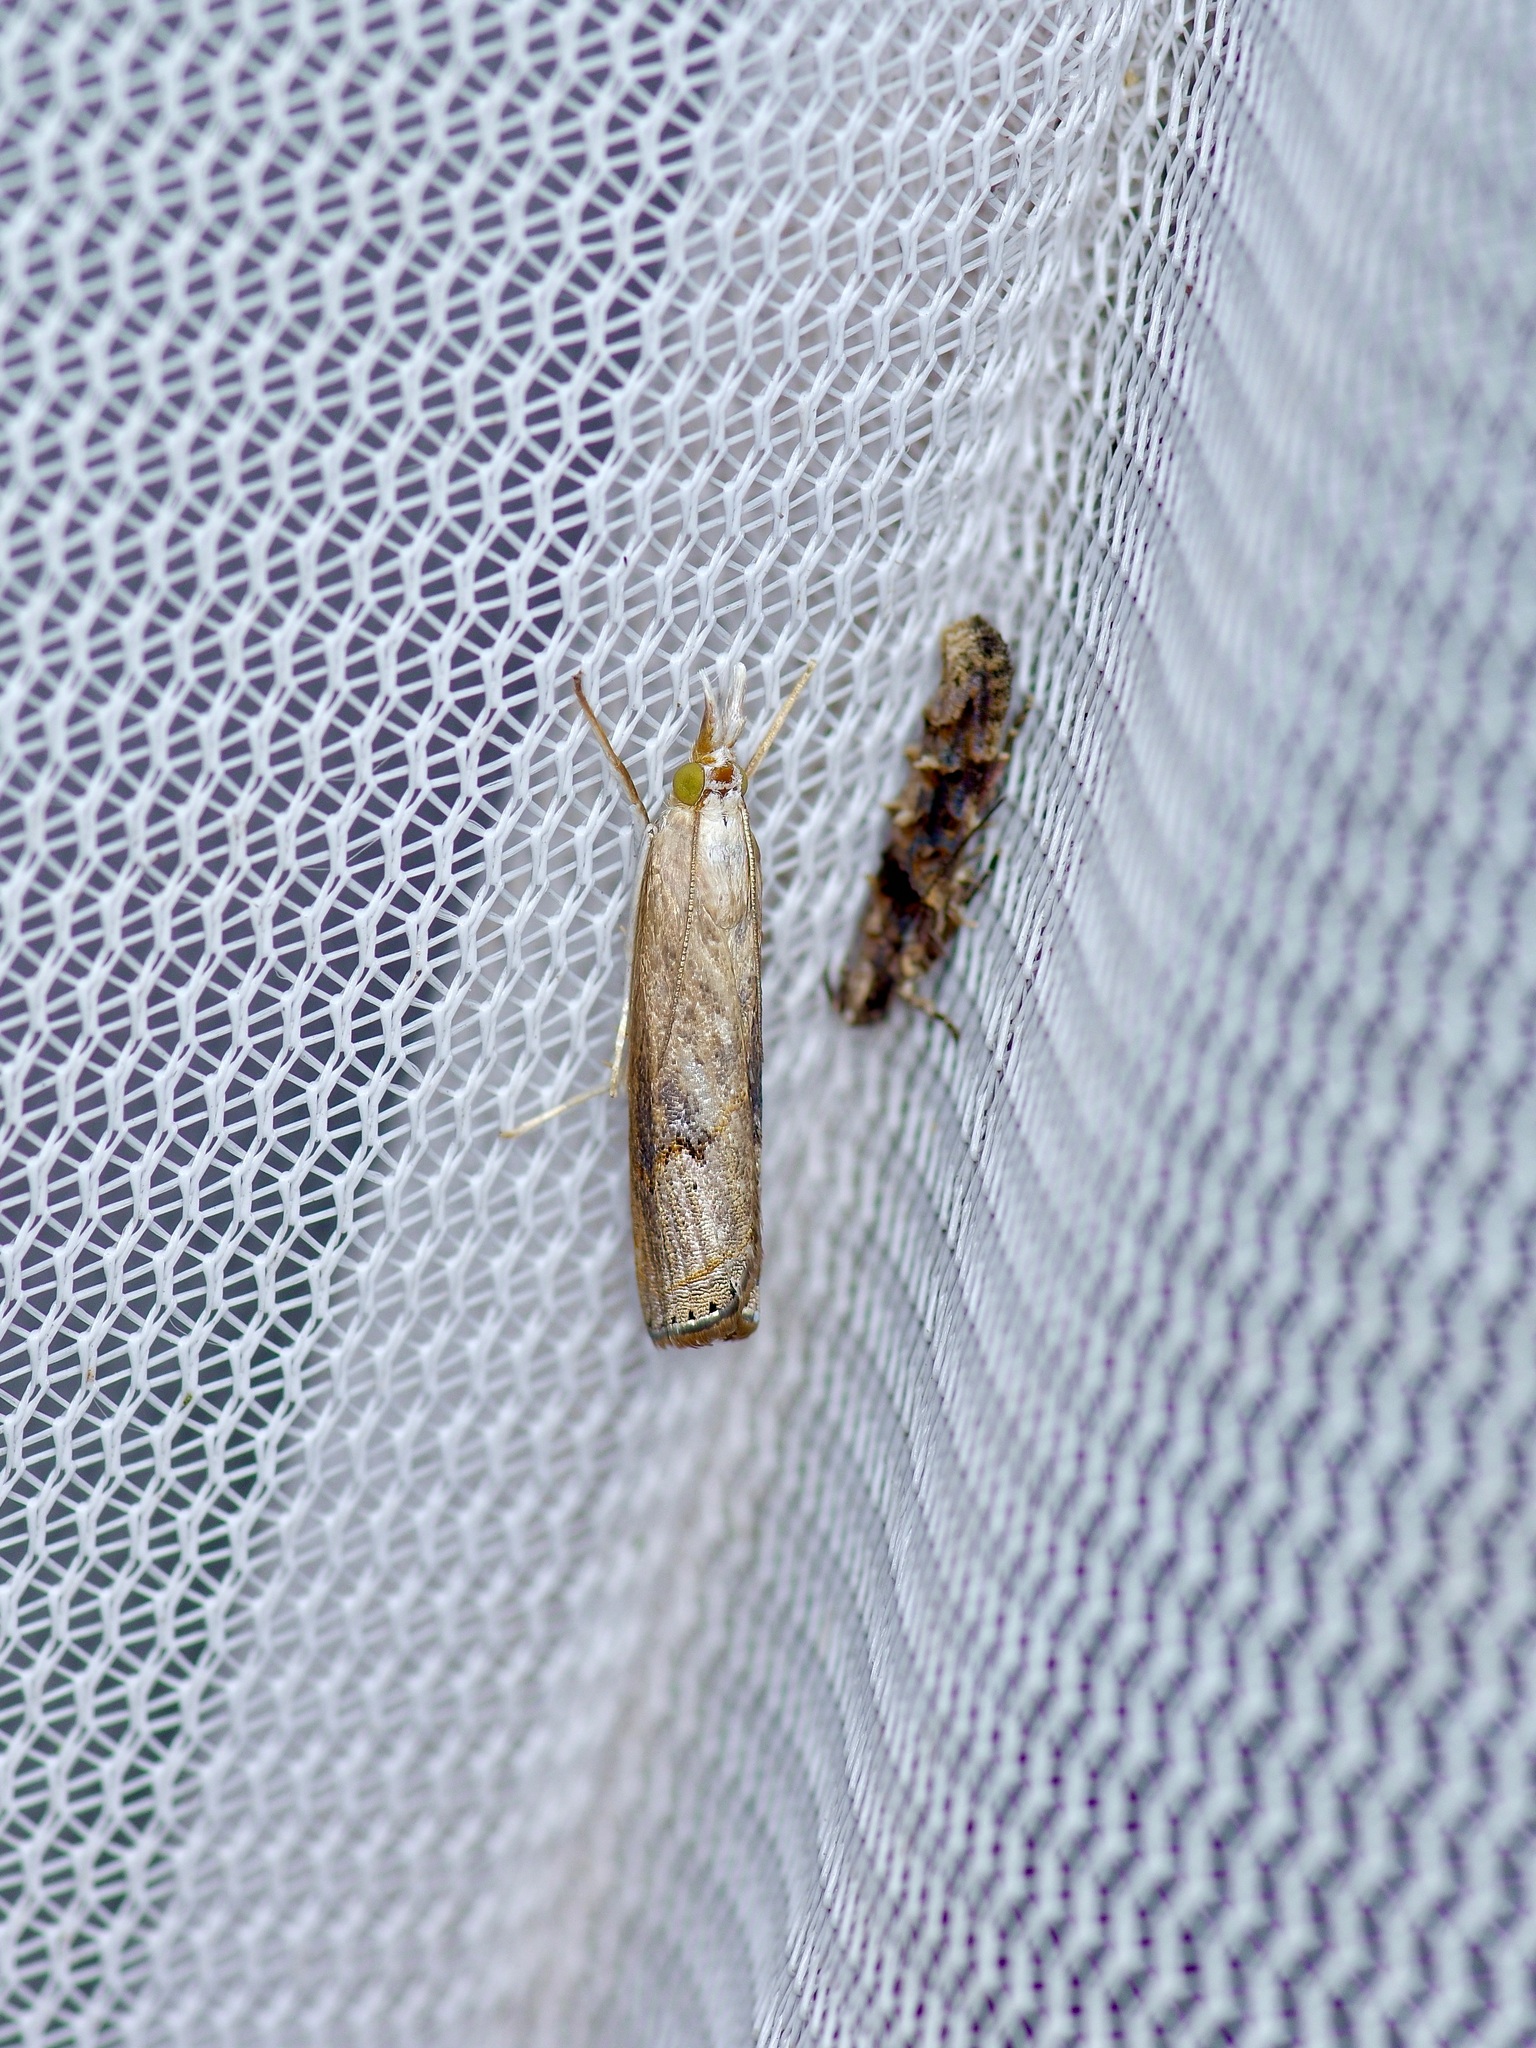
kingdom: Animalia
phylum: Arthropoda
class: Insecta
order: Lepidoptera
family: Crambidae
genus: Parapediasia
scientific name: Parapediasia teterellus
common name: Bluegrass webworm moth
